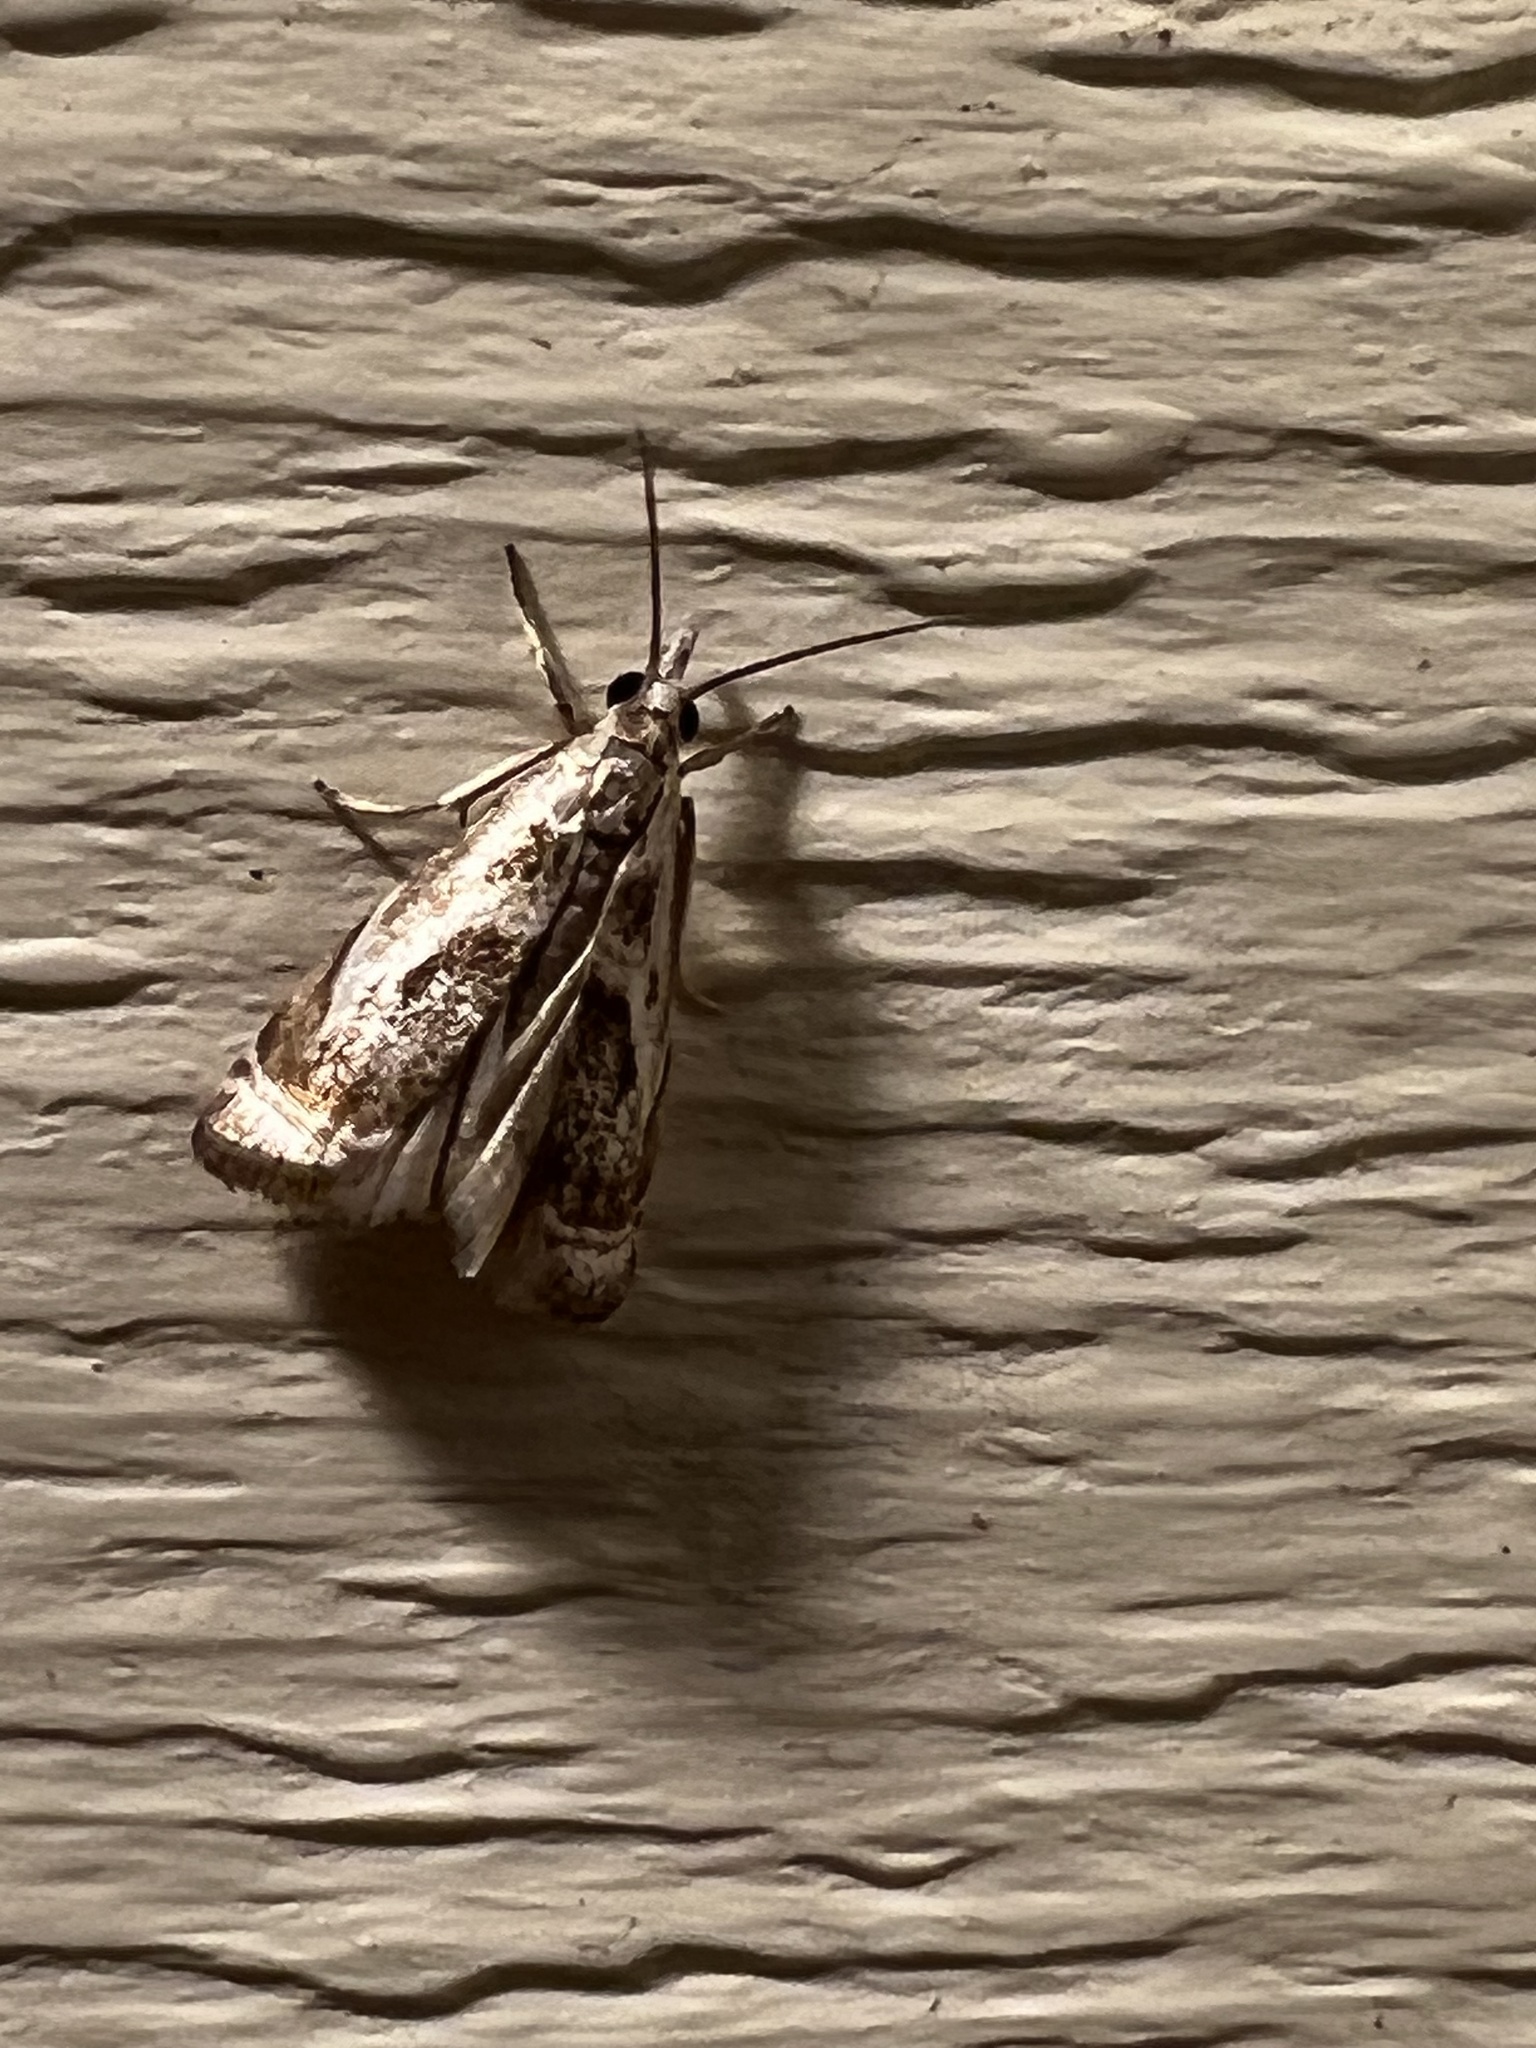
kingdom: Animalia
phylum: Arthropoda
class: Insecta
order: Lepidoptera
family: Crambidae
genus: Microcrambus
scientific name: Microcrambus elegans
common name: Elegant grass-veneer
